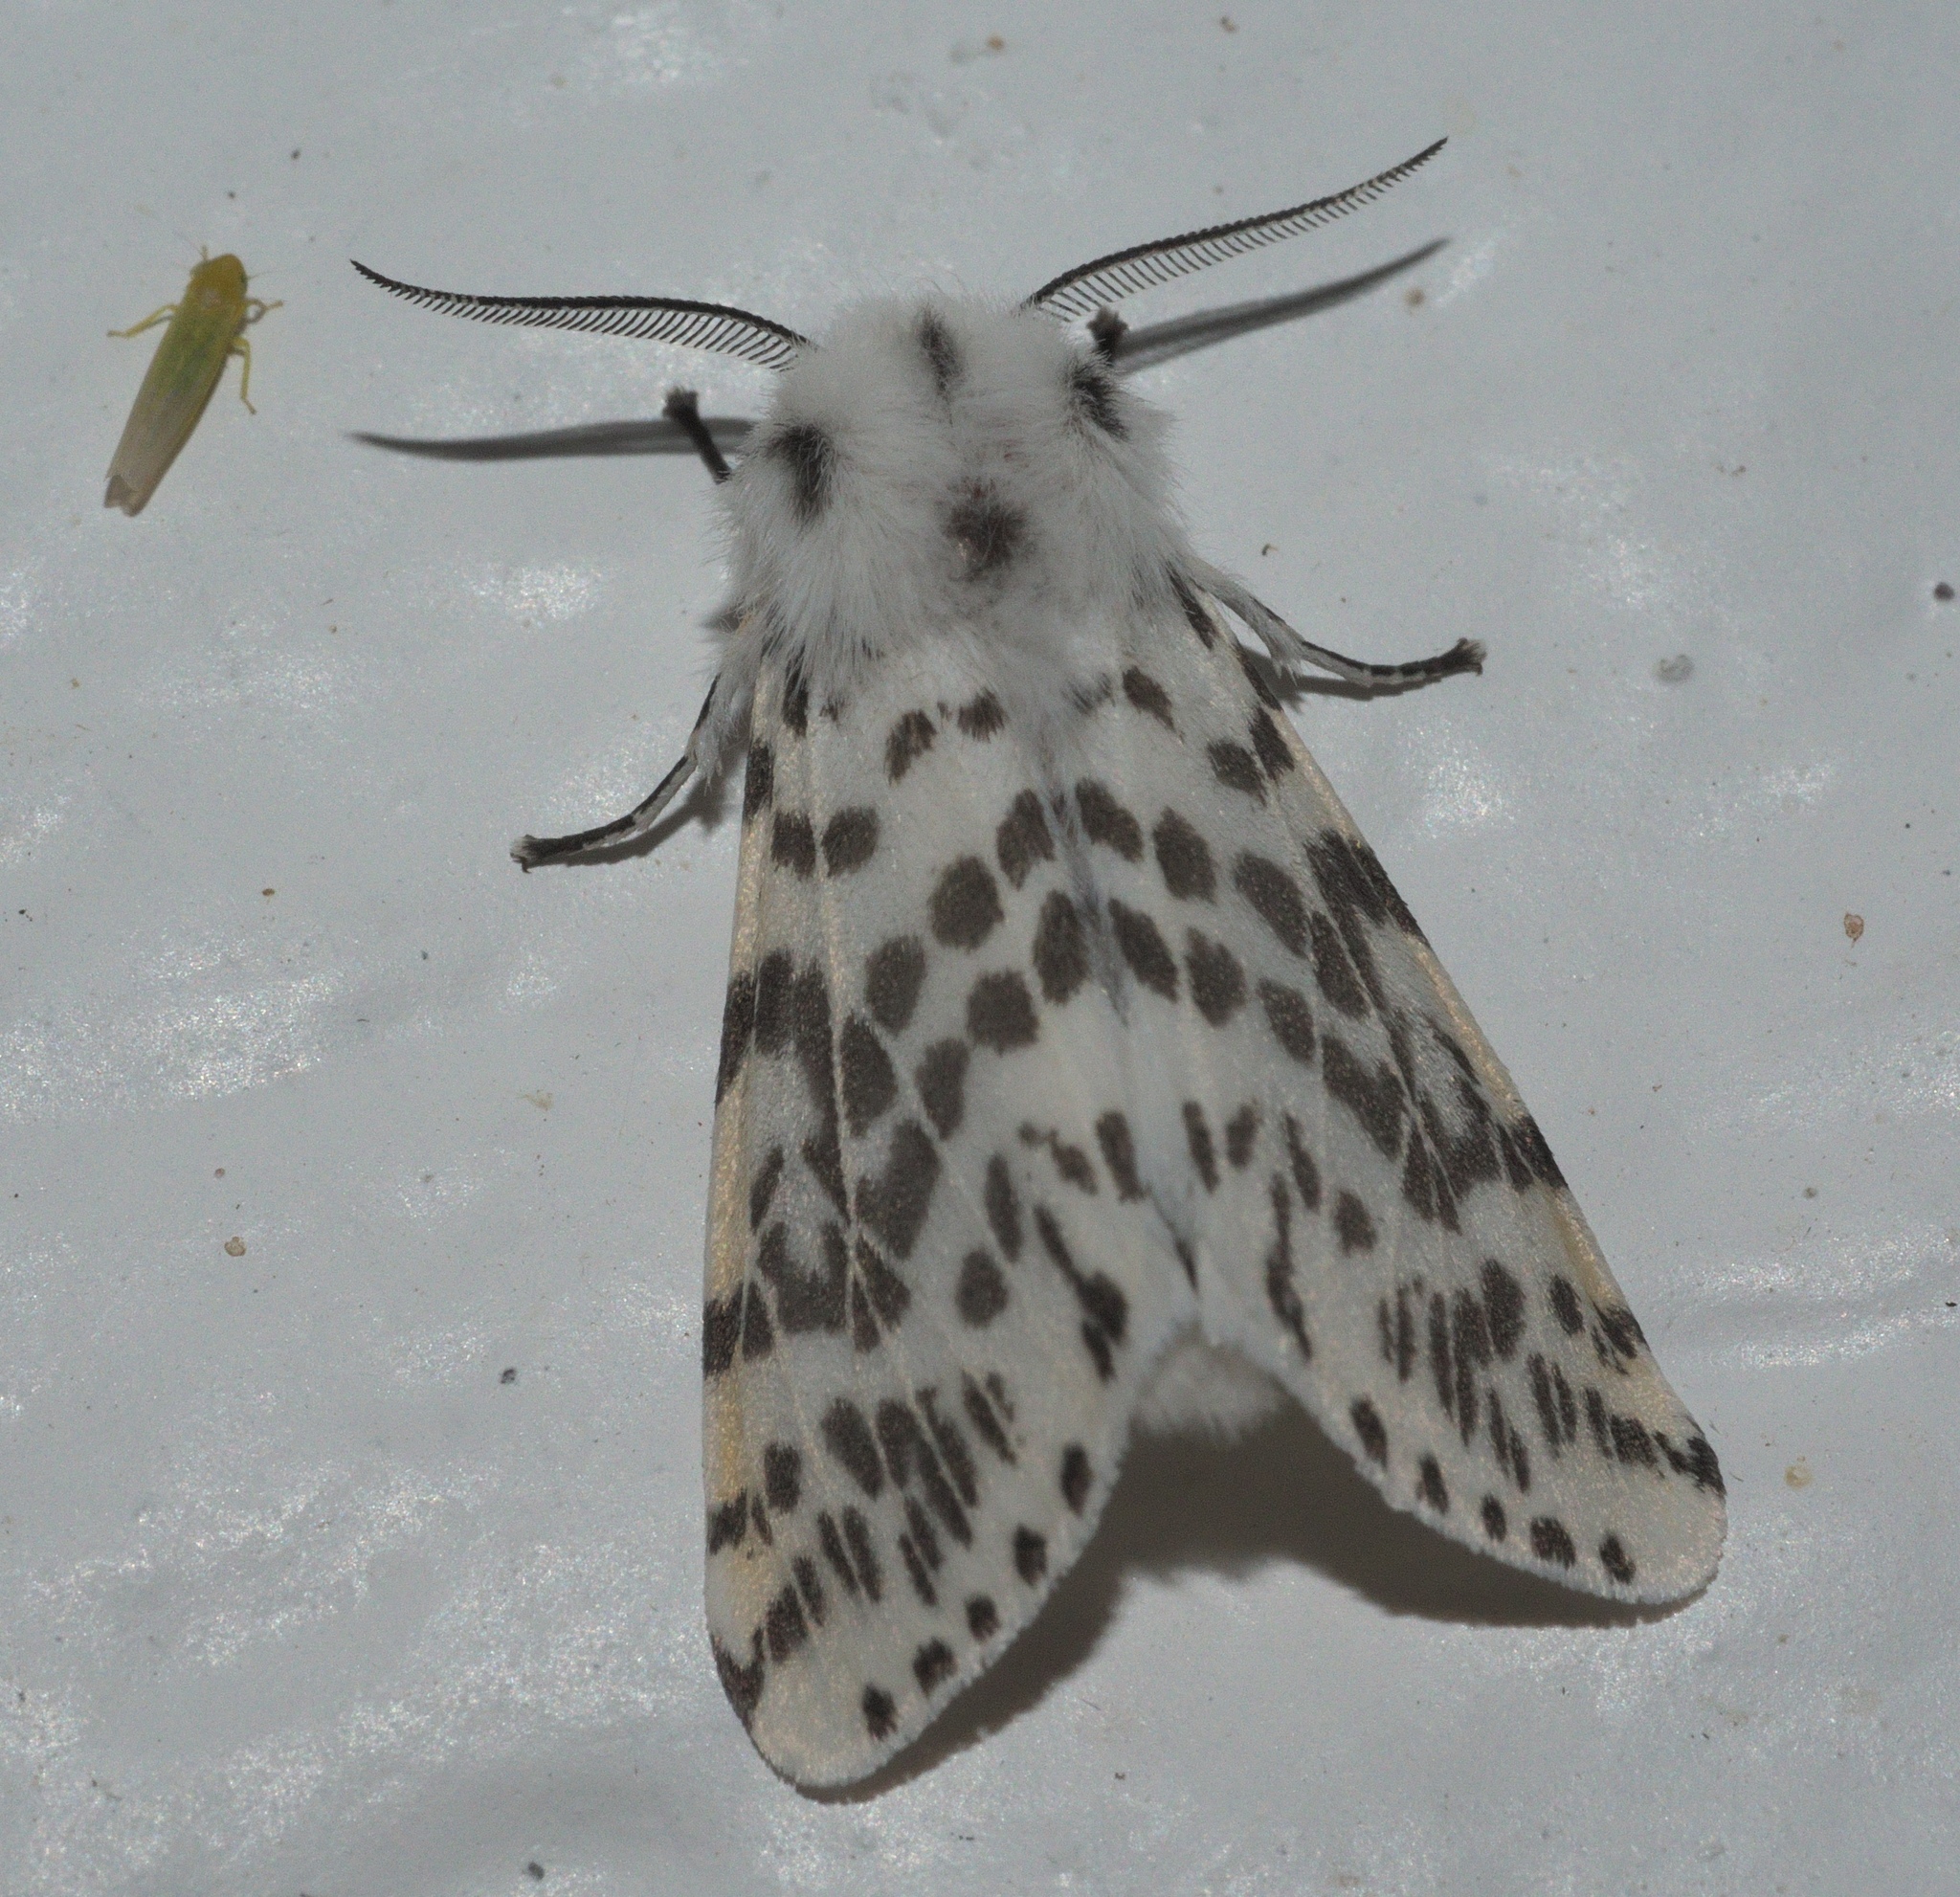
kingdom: Animalia
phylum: Arthropoda
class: Insecta
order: Lepidoptera
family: Erebidae
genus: Hyphantria
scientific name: Hyphantria cunea
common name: American white moth
